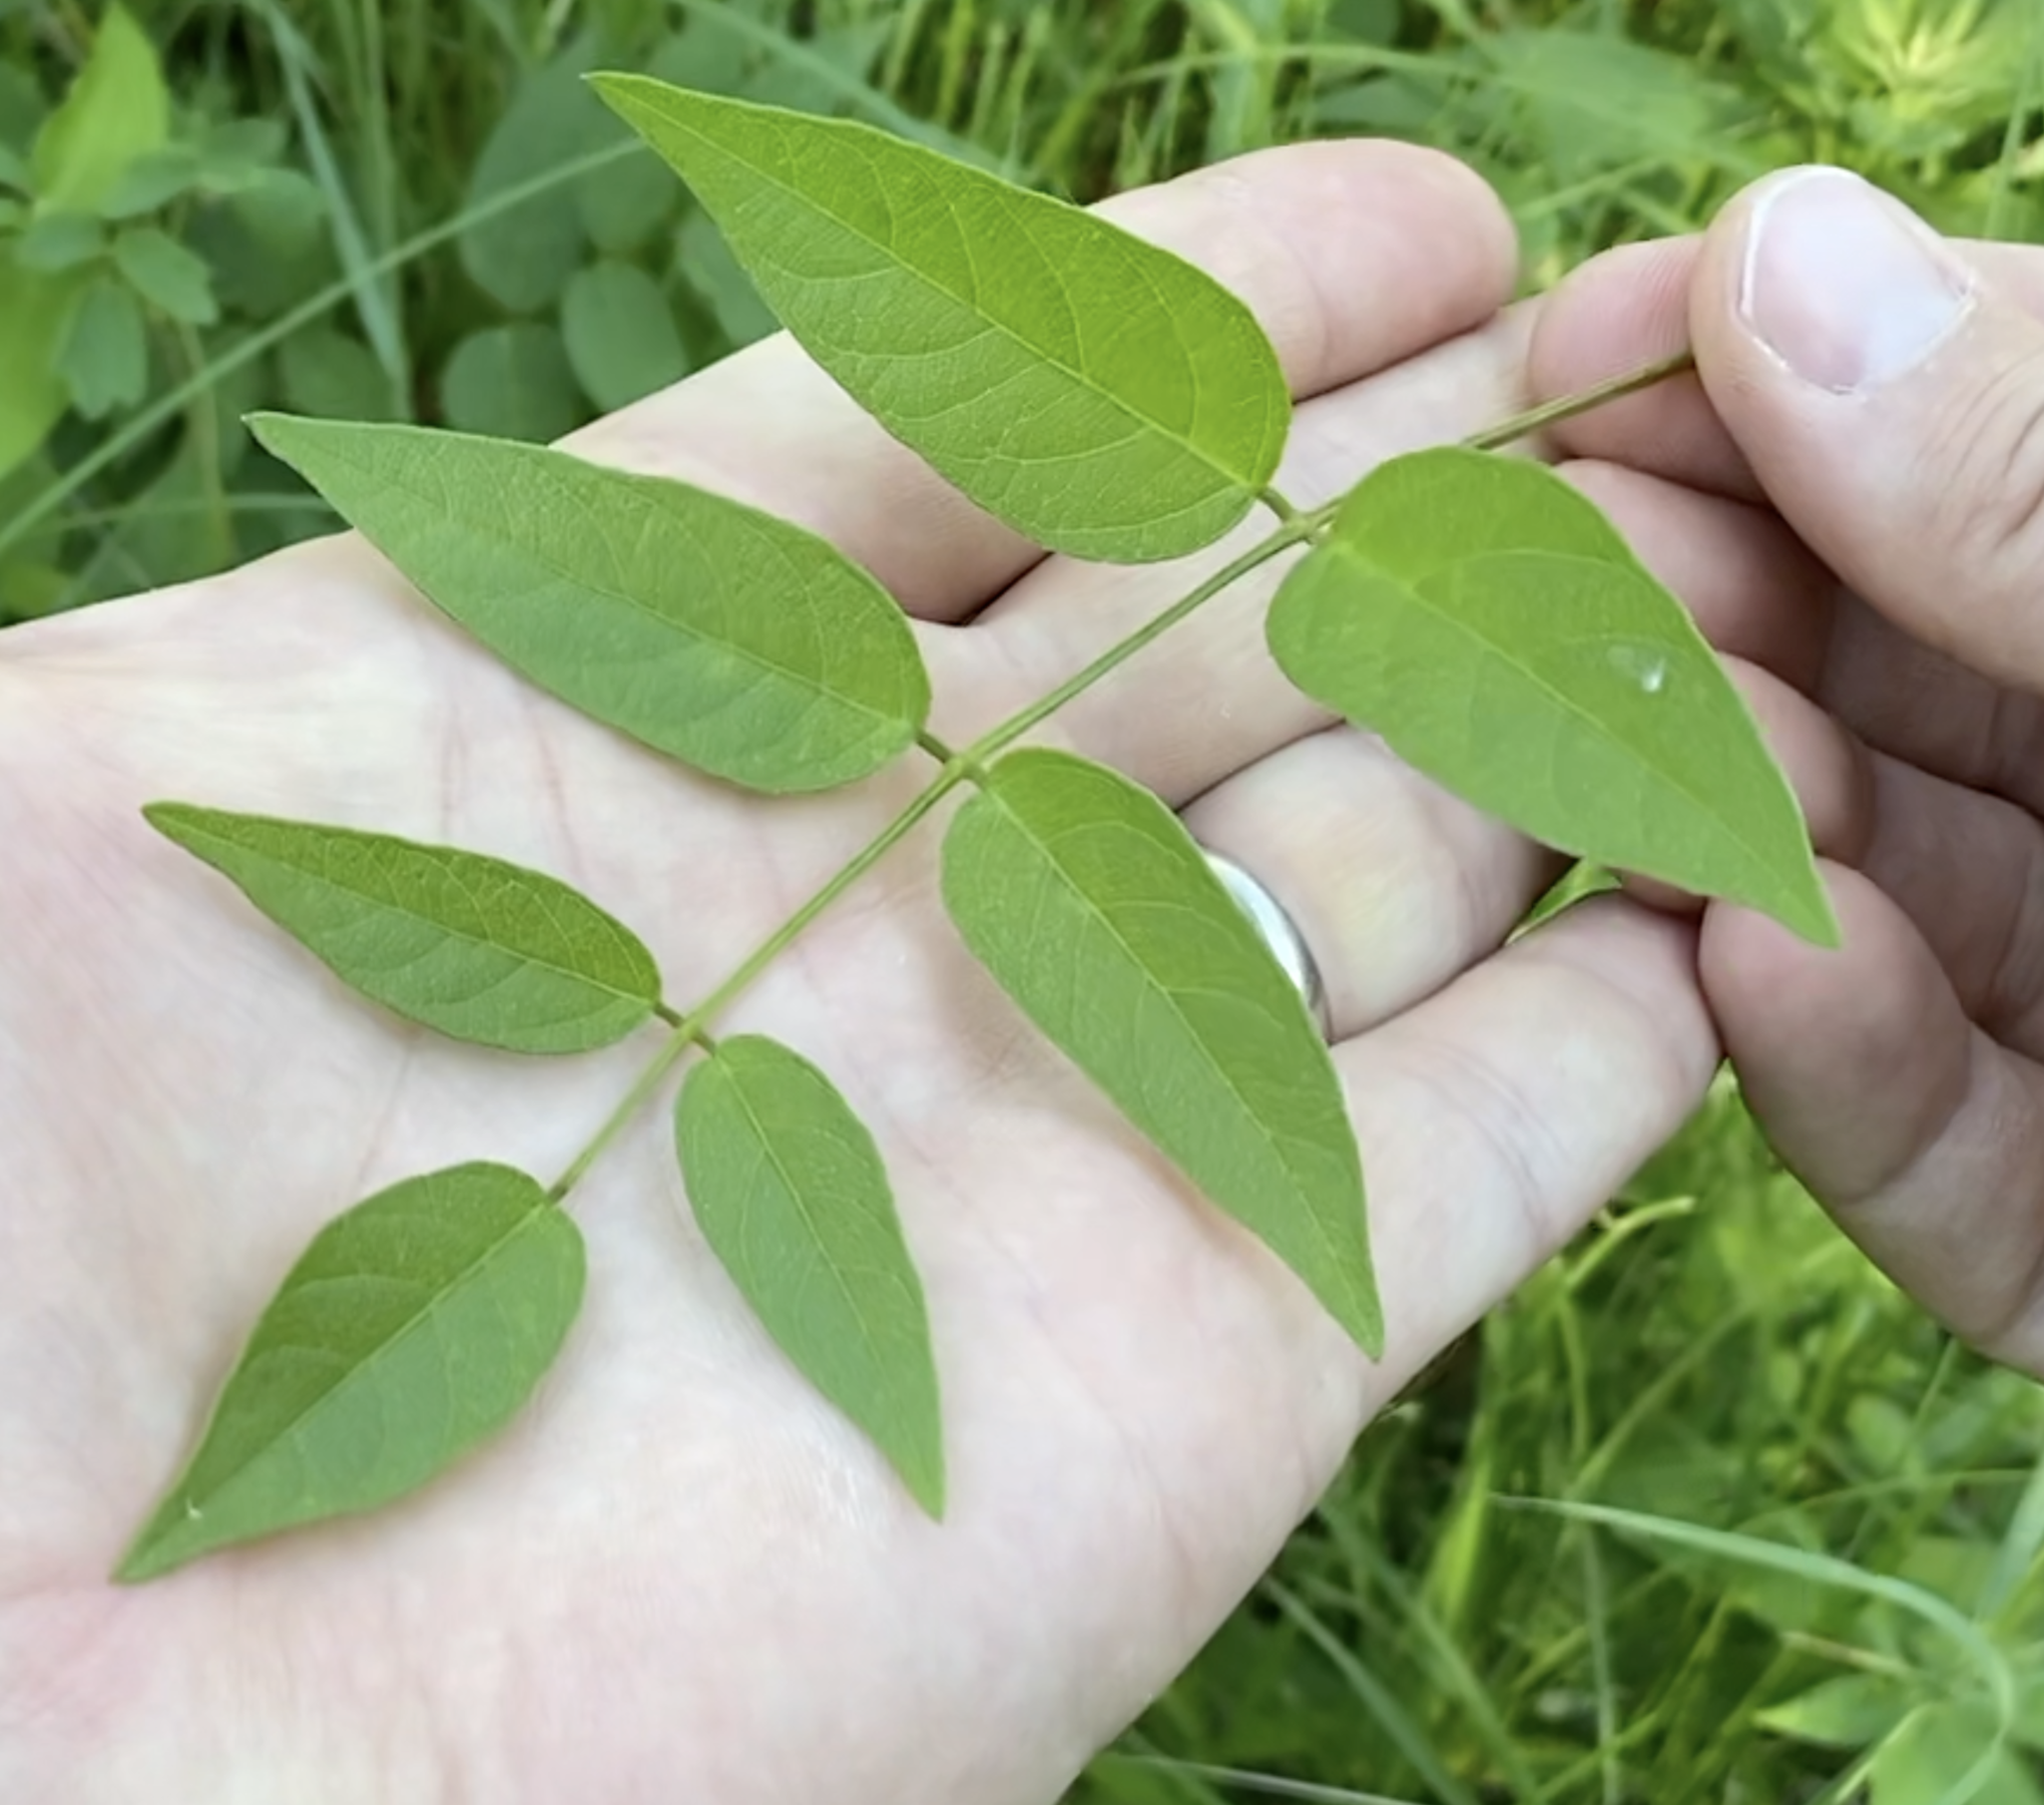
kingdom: Plantae
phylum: Tracheophyta
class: Magnoliopsida
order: Fabales
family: Fabaceae
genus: Apios
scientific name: Apios americana
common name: American potato-bean
